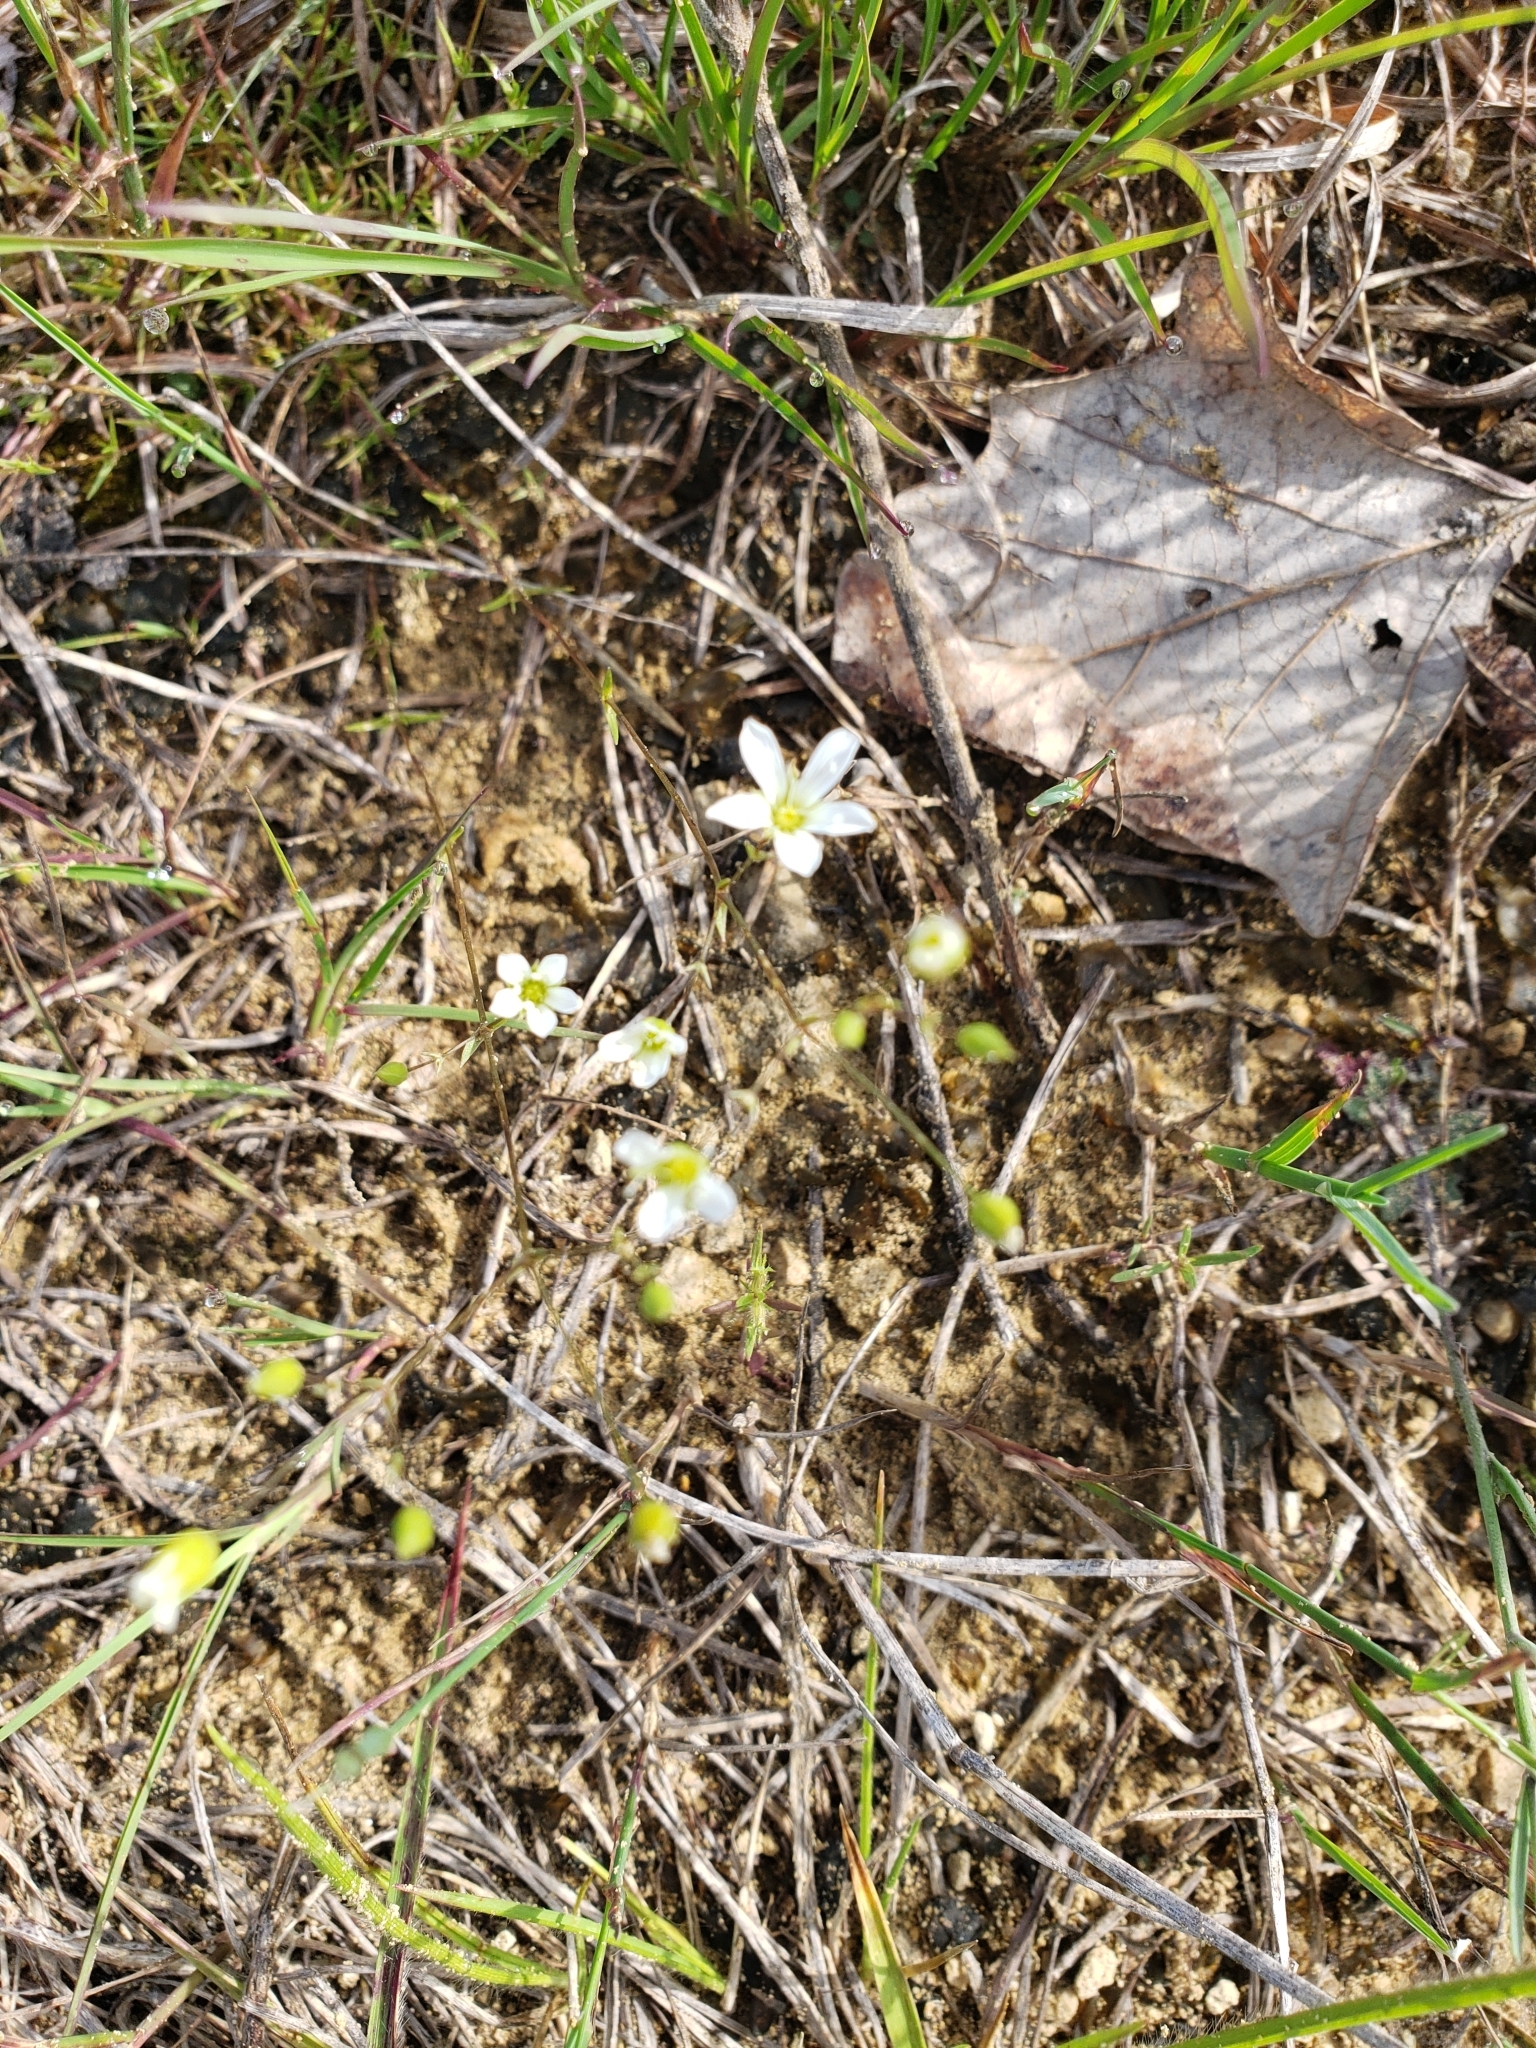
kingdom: Plantae
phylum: Tracheophyta
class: Magnoliopsida
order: Caryophyllales
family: Caryophyllaceae
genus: Sabulina
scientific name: Sabulina michauxii
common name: Michaux's stitchwort
